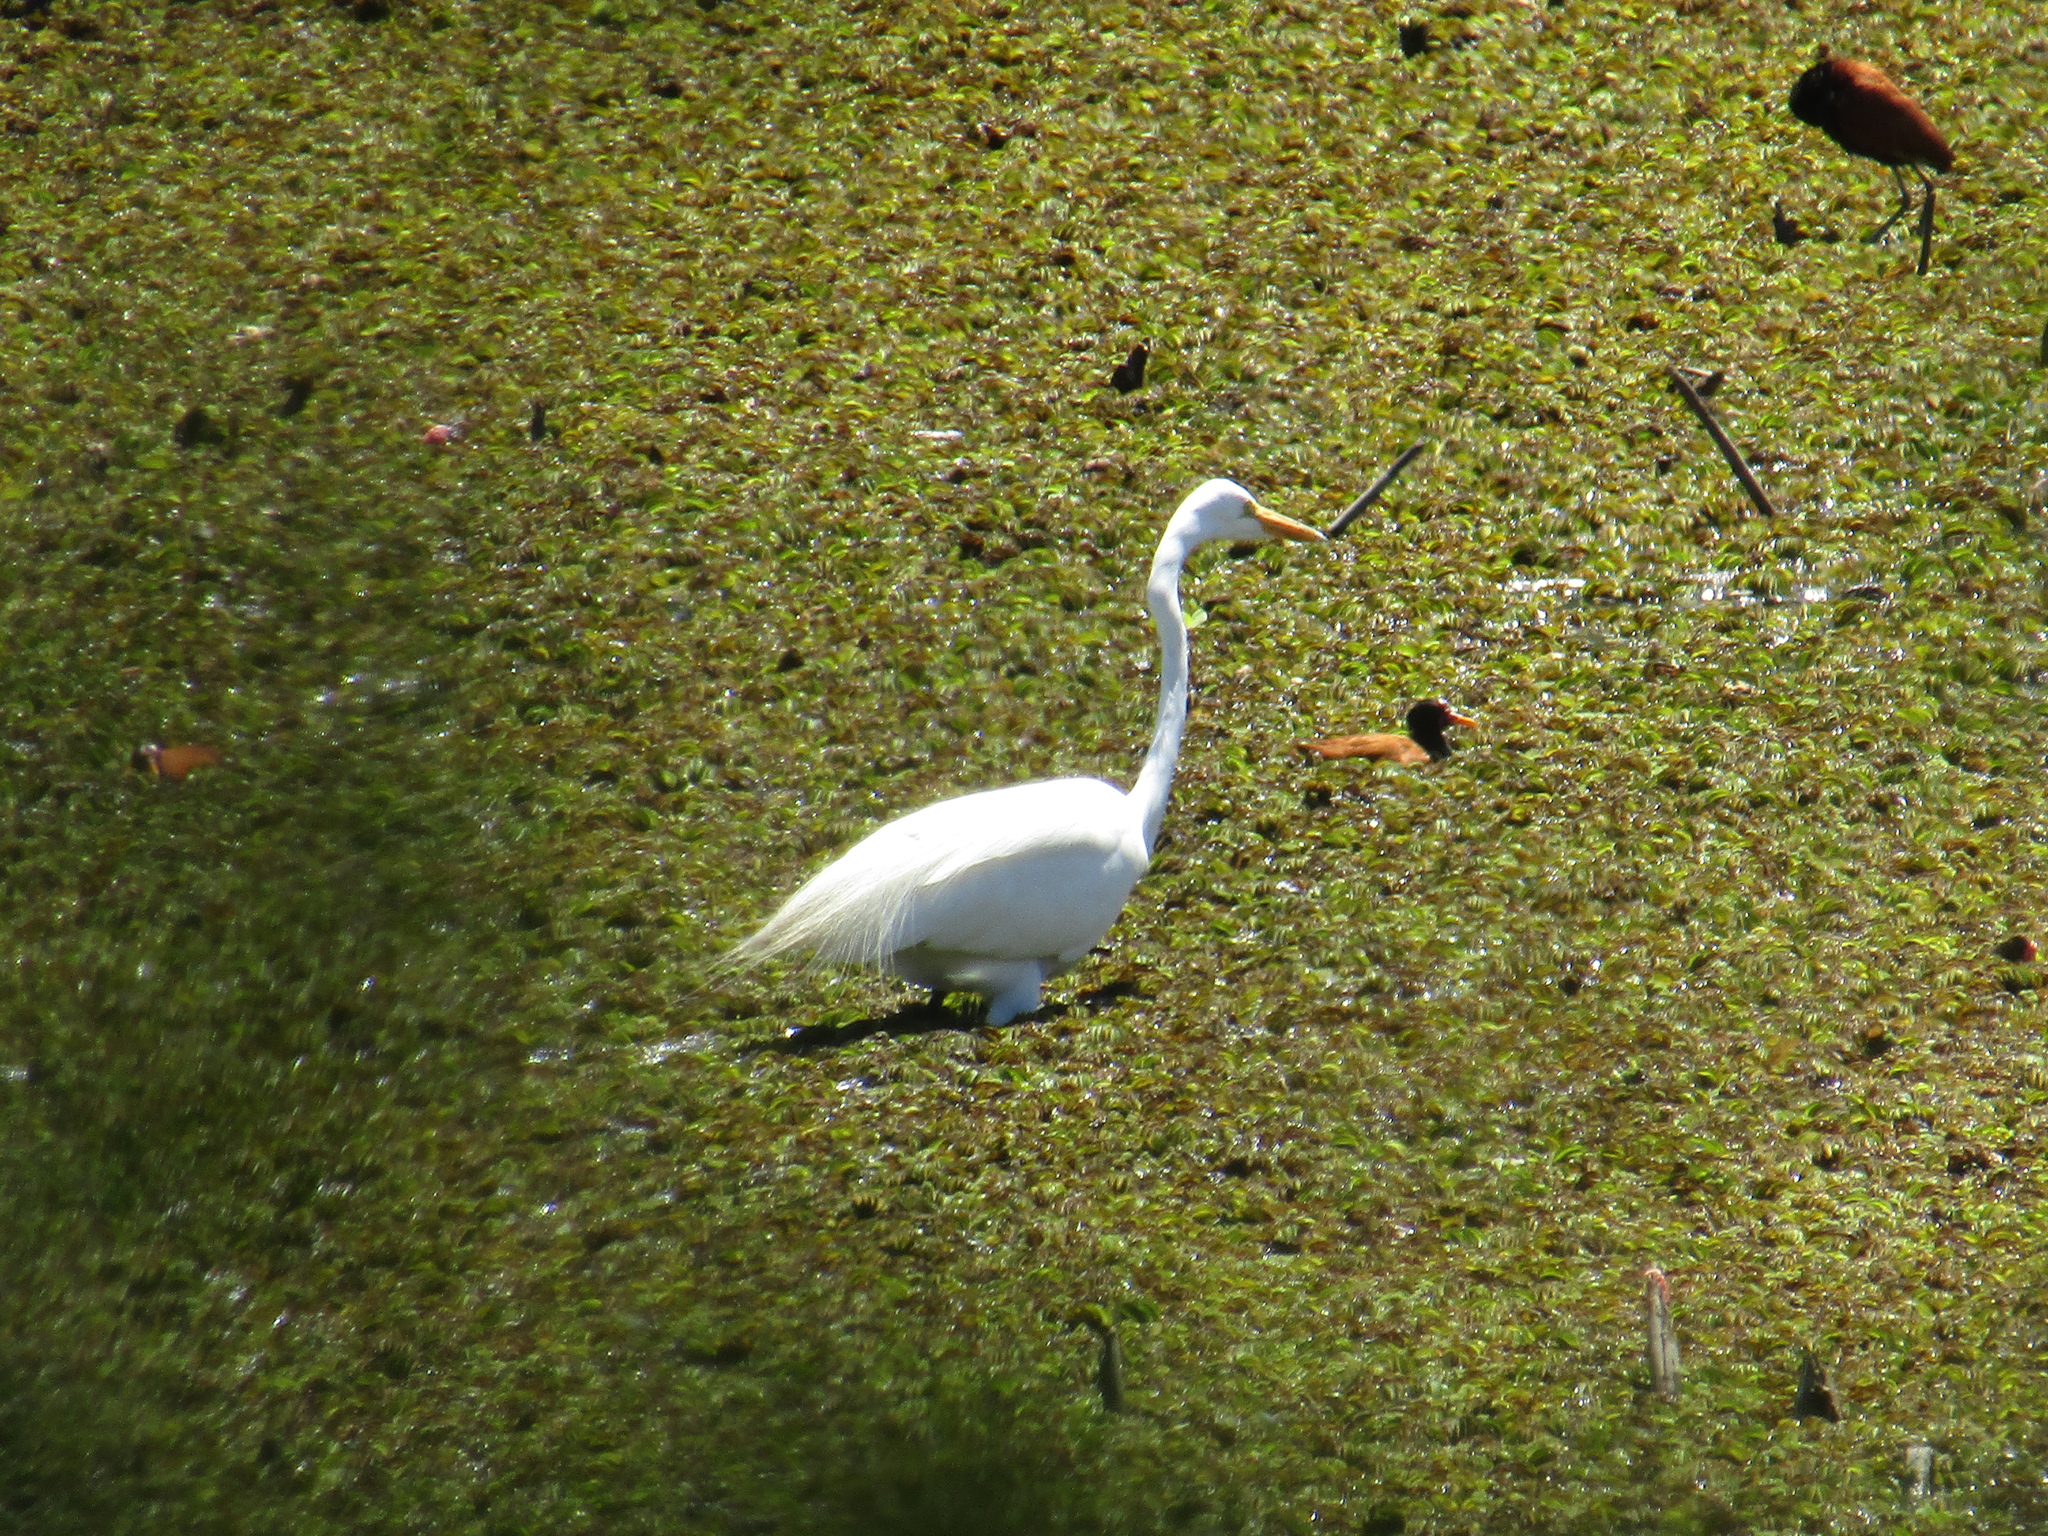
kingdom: Animalia
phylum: Chordata
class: Aves
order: Pelecaniformes
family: Ardeidae
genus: Ardea
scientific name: Ardea alba
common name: Great egret
